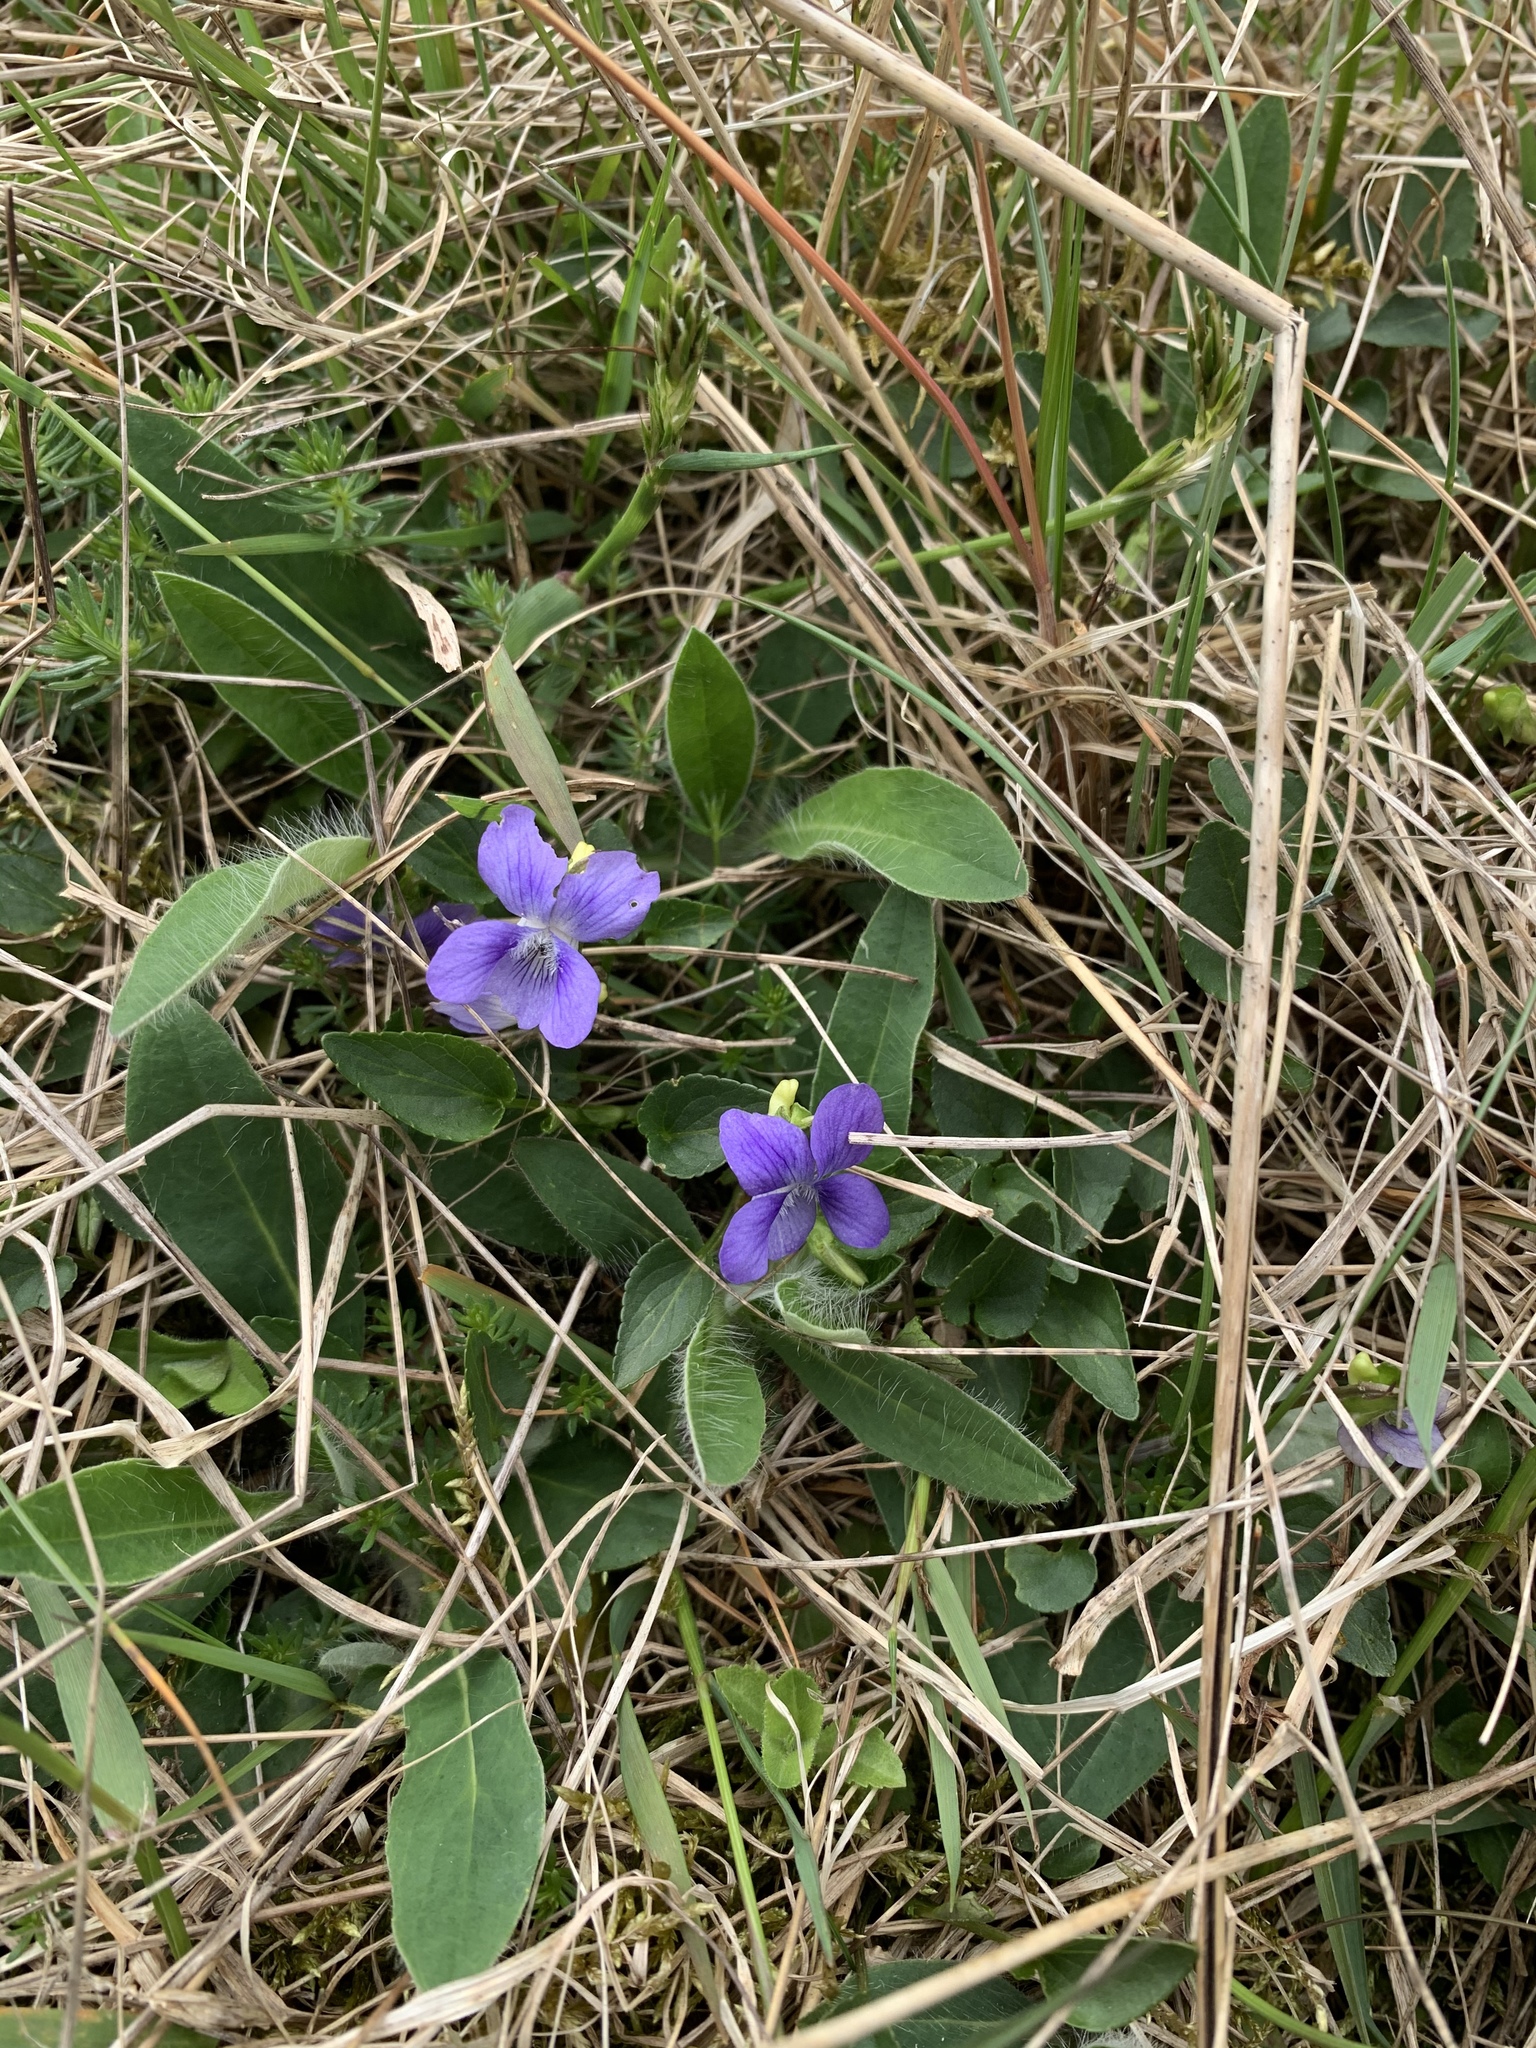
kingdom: Plantae
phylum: Tracheophyta
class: Magnoliopsida
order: Malpighiales
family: Violaceae
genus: Viola
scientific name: Viola canina
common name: Heath dog-violet
